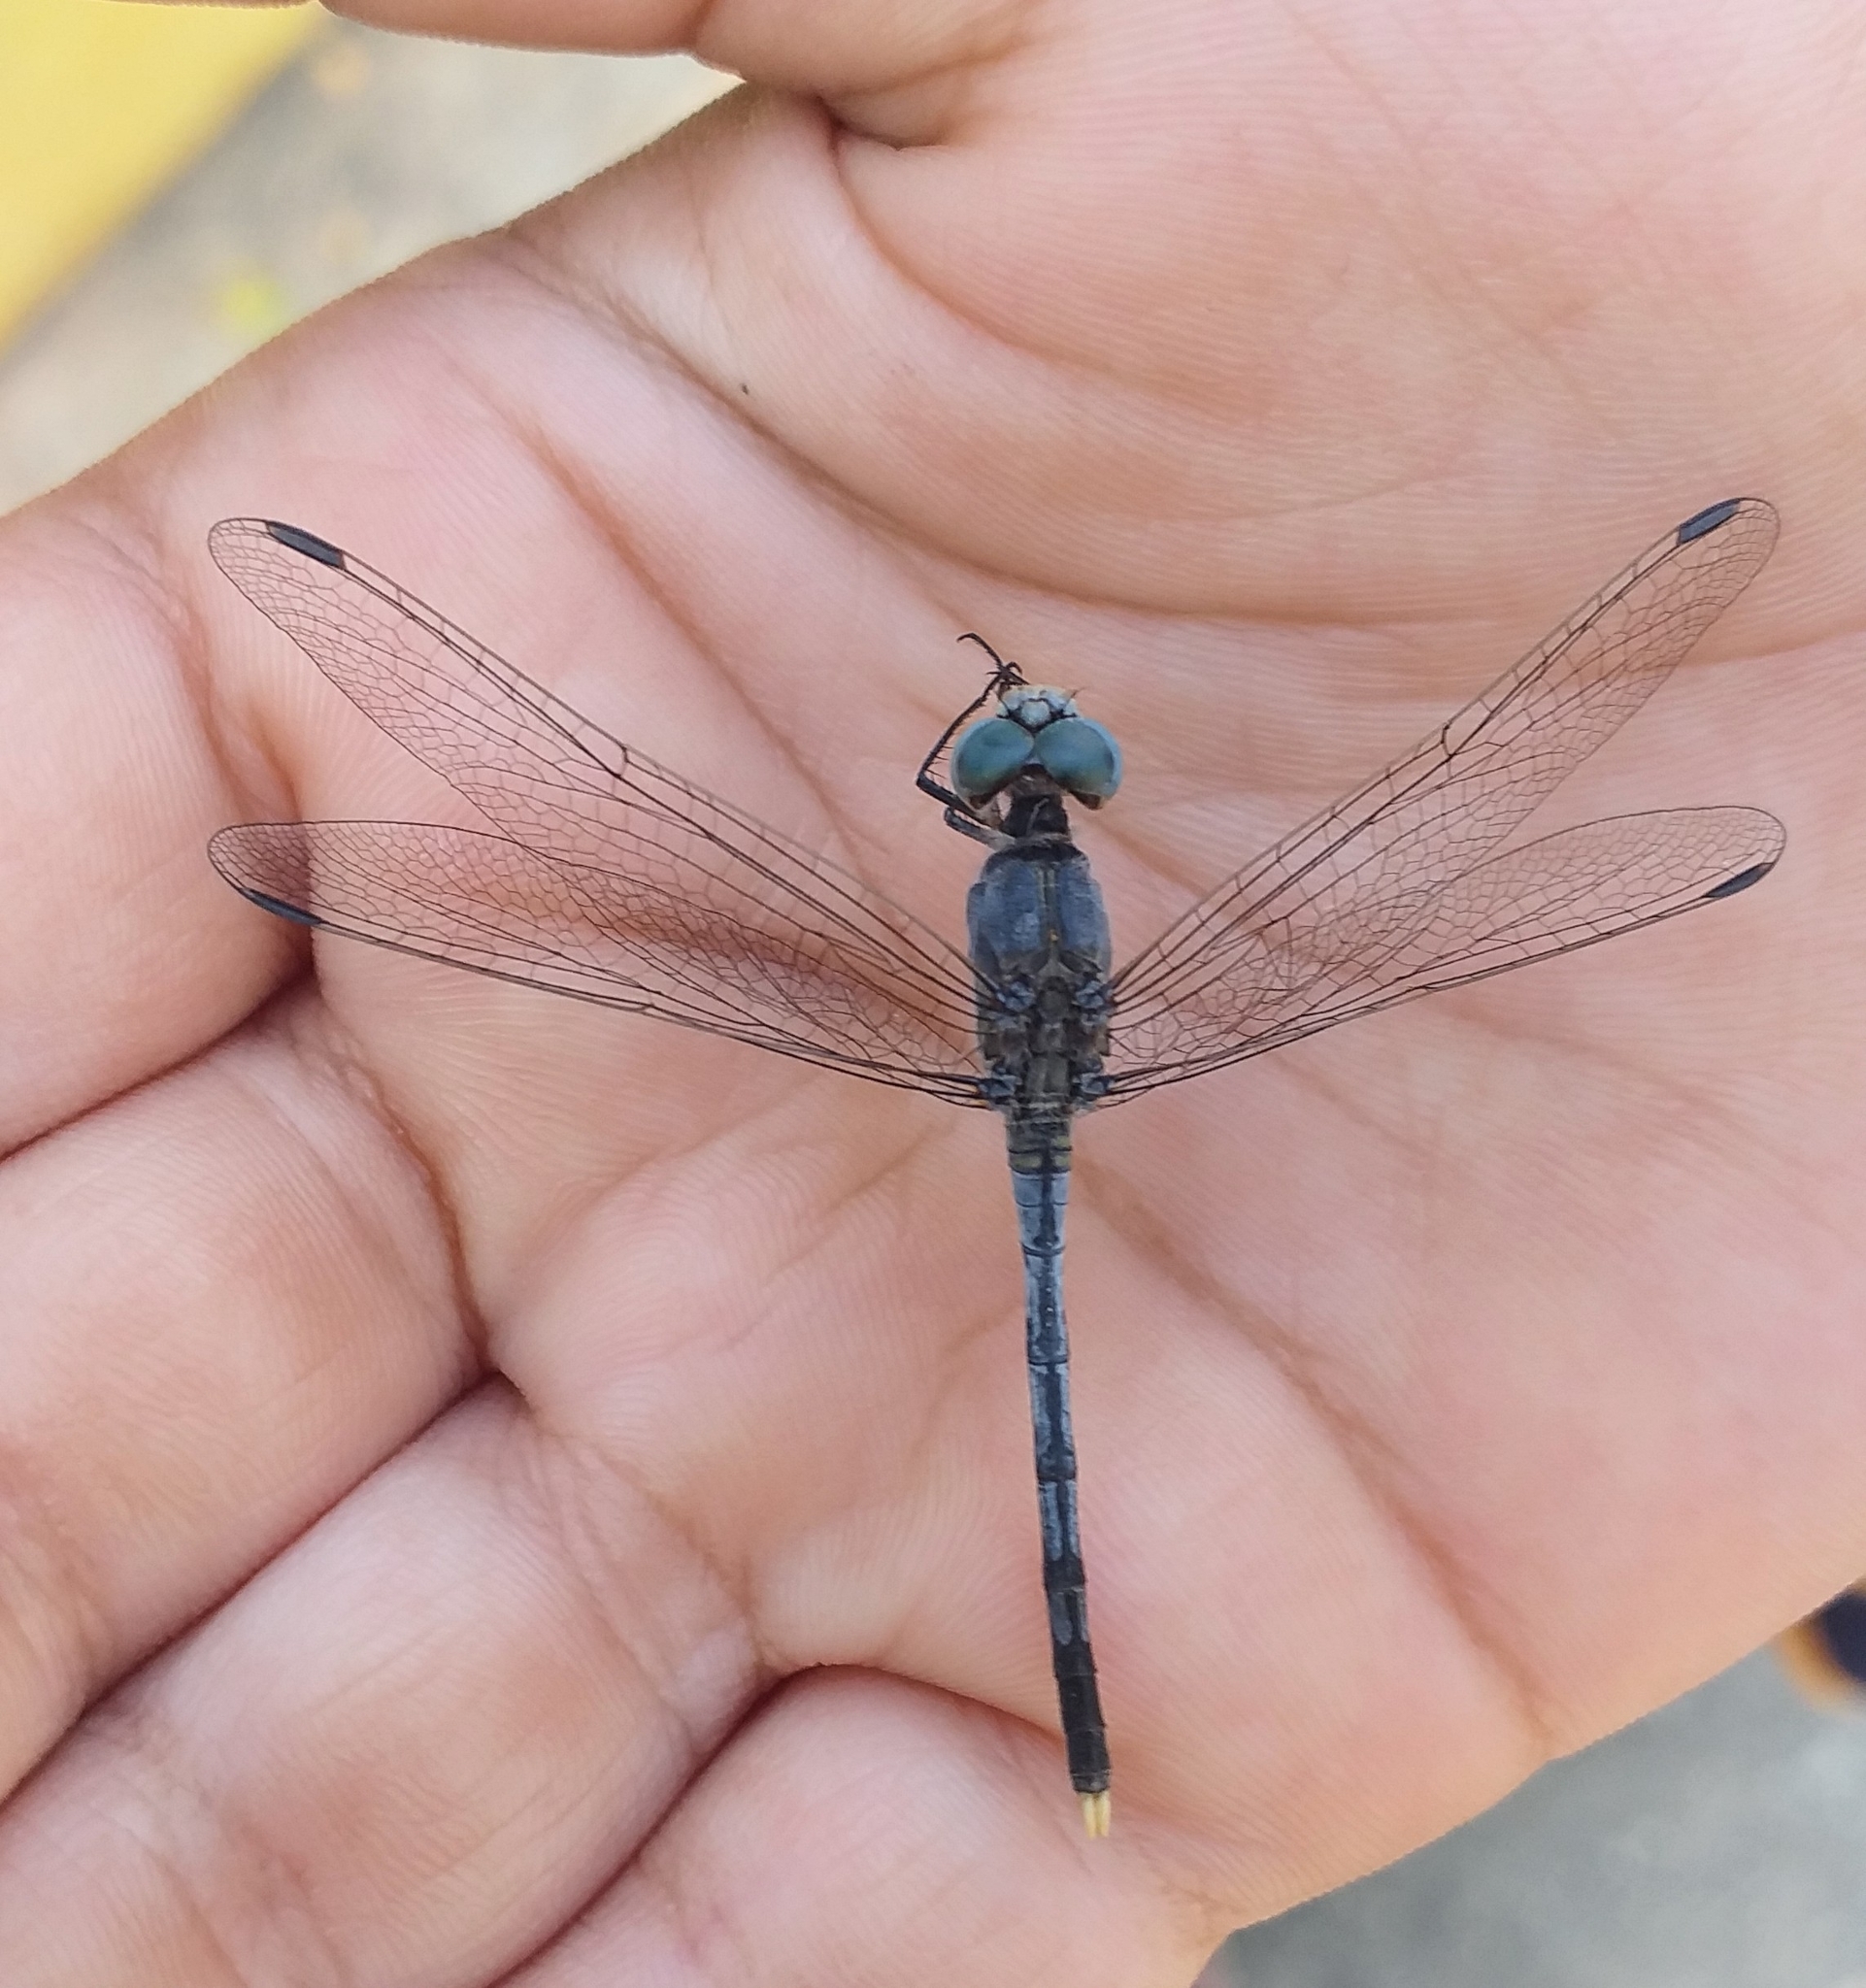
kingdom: Animalia
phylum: Arthropoda
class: Insecta
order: Odonata
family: Libellulidae
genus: Diplacodes
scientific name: Diplacodes trivialis
